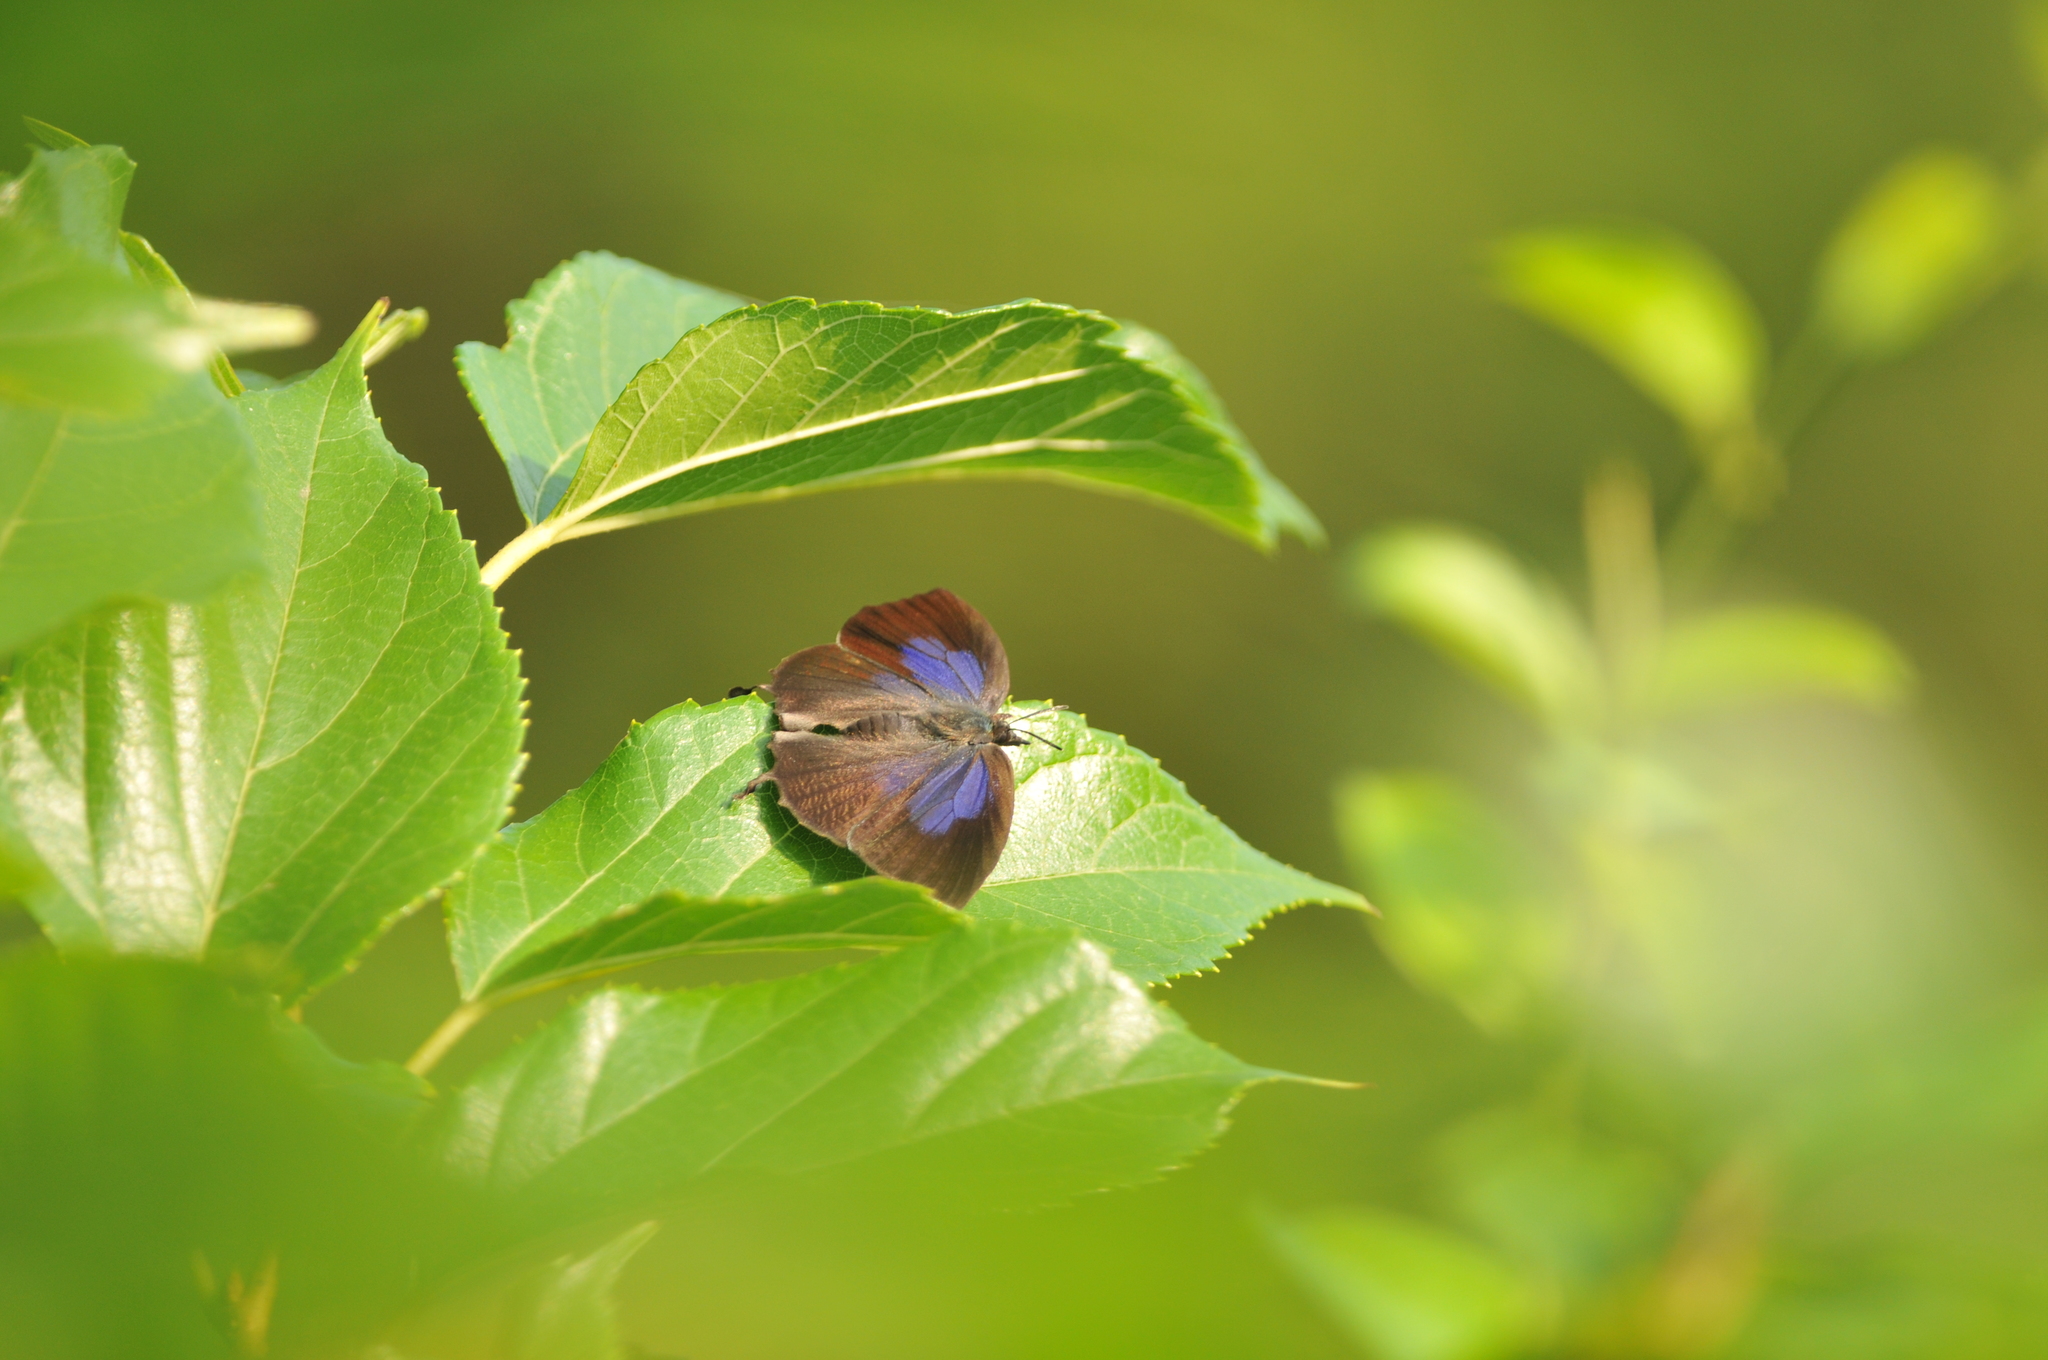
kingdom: Animalia
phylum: Arthropoda
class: Insecta
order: Lepidoptera
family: Lycaenidae
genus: Mahathala
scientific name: Mahathala ameria
